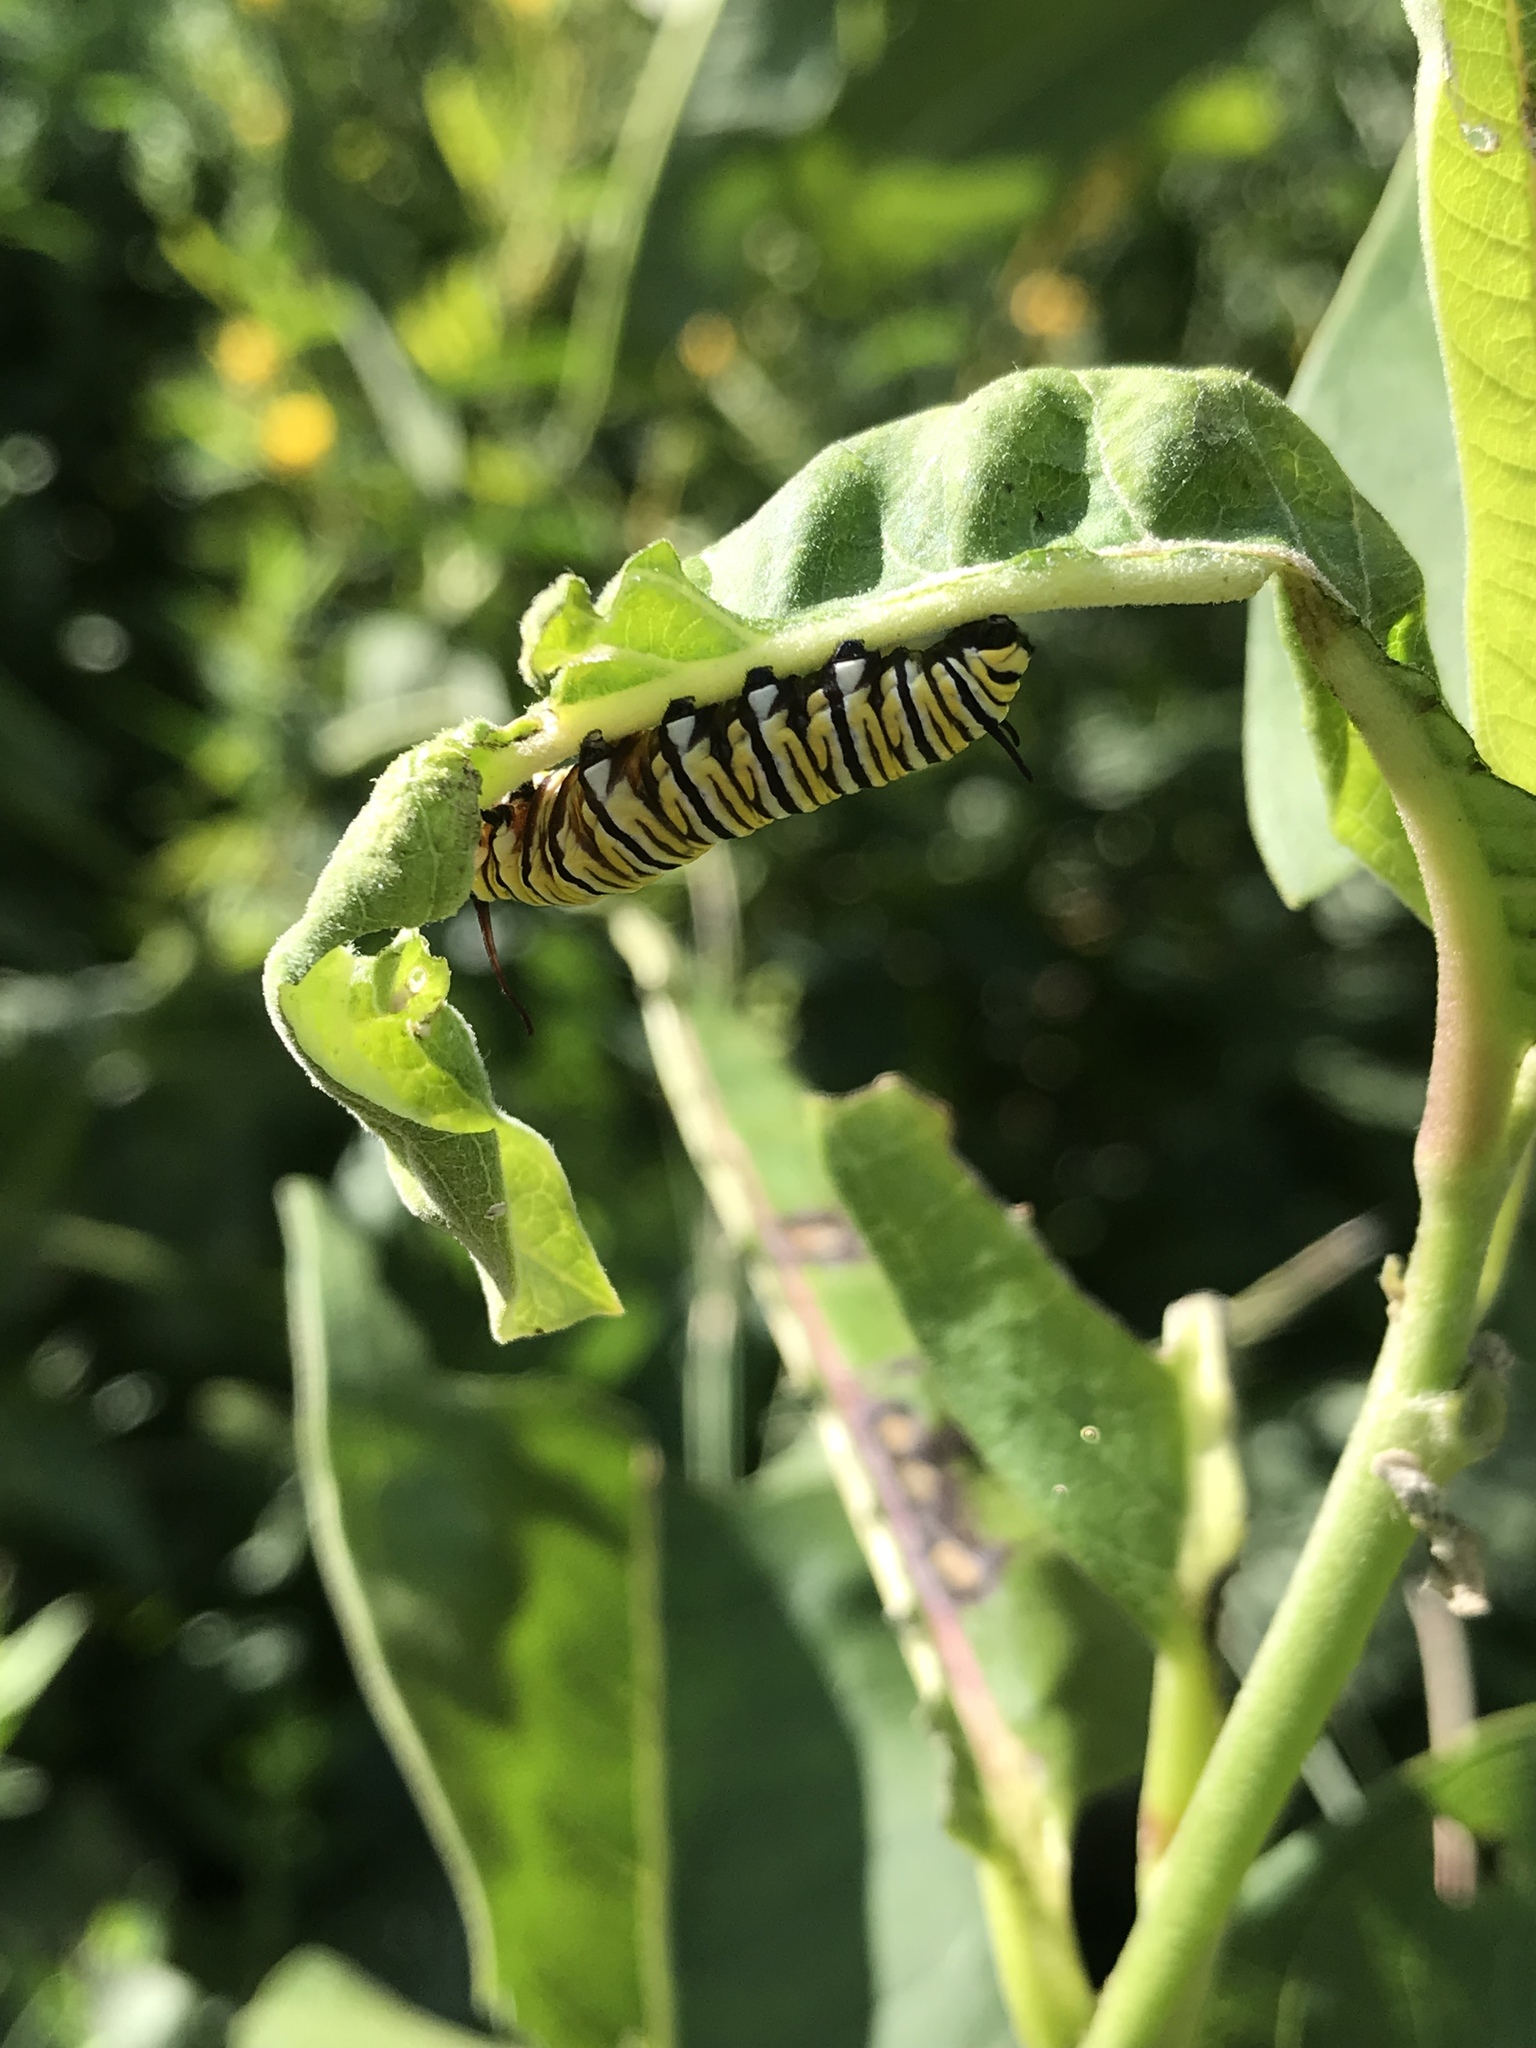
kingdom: Animalia
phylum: Arthropoda
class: Insecta
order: Lepidoptera
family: Nymphalidae
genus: Danaus
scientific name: Danaus plexippus
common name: Monarch
